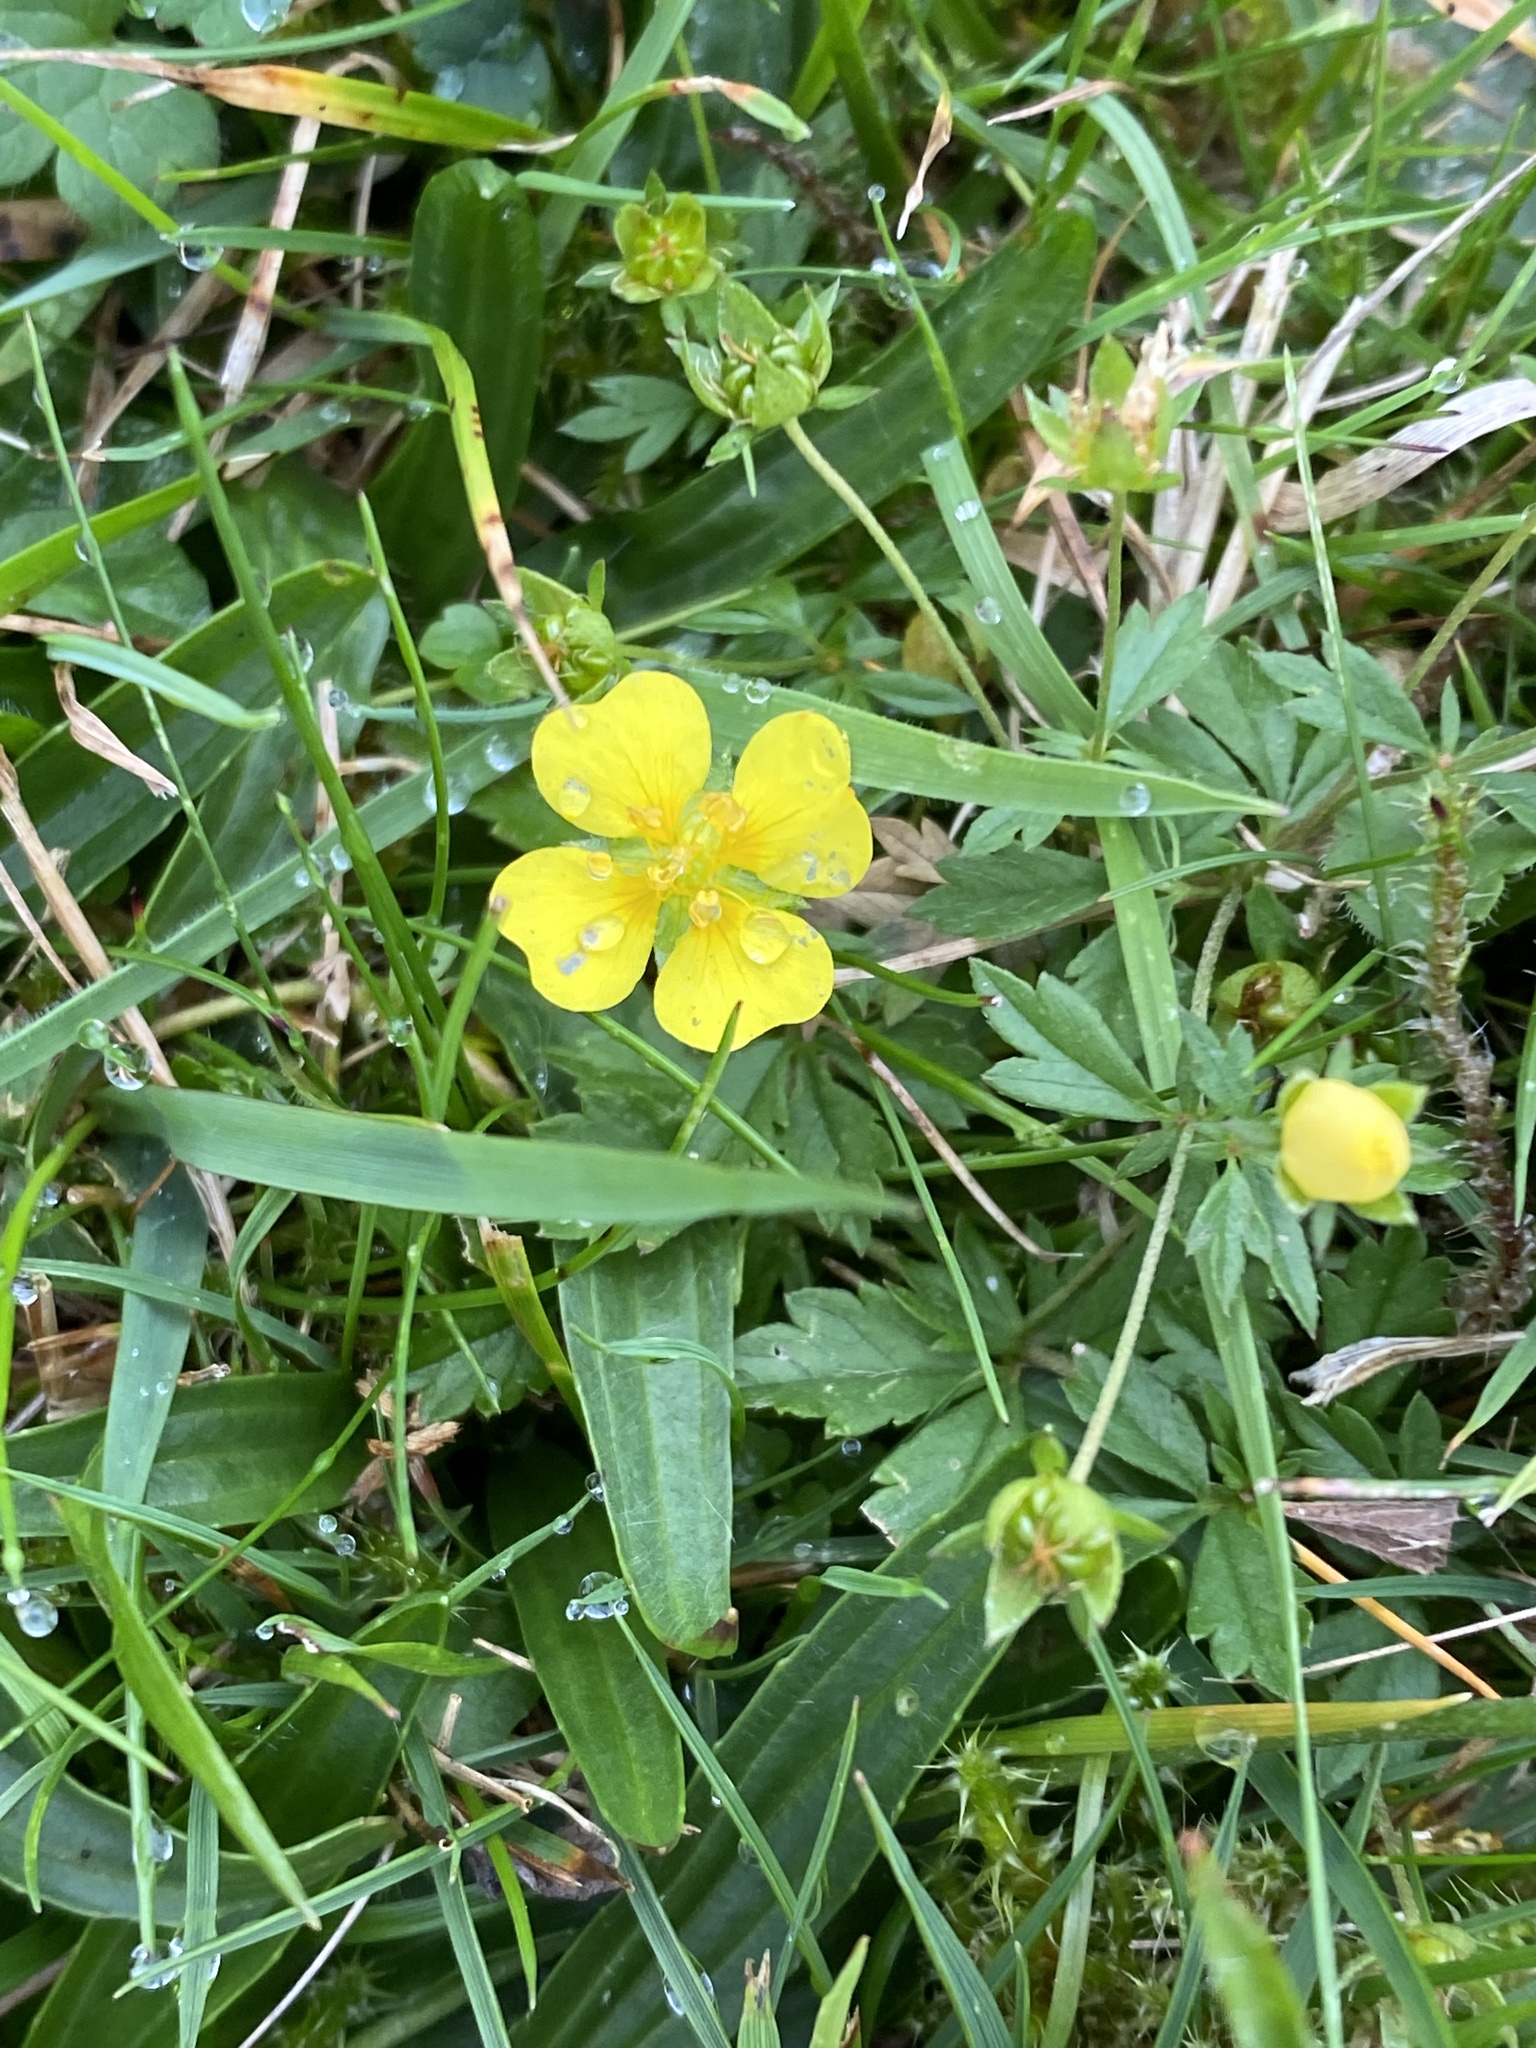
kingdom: Plantae
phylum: Tracheophyta
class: Magnoliopsida
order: Rosales
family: Rosaceae
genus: Potentilla
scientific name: Potentilla erecta
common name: Tormentil
